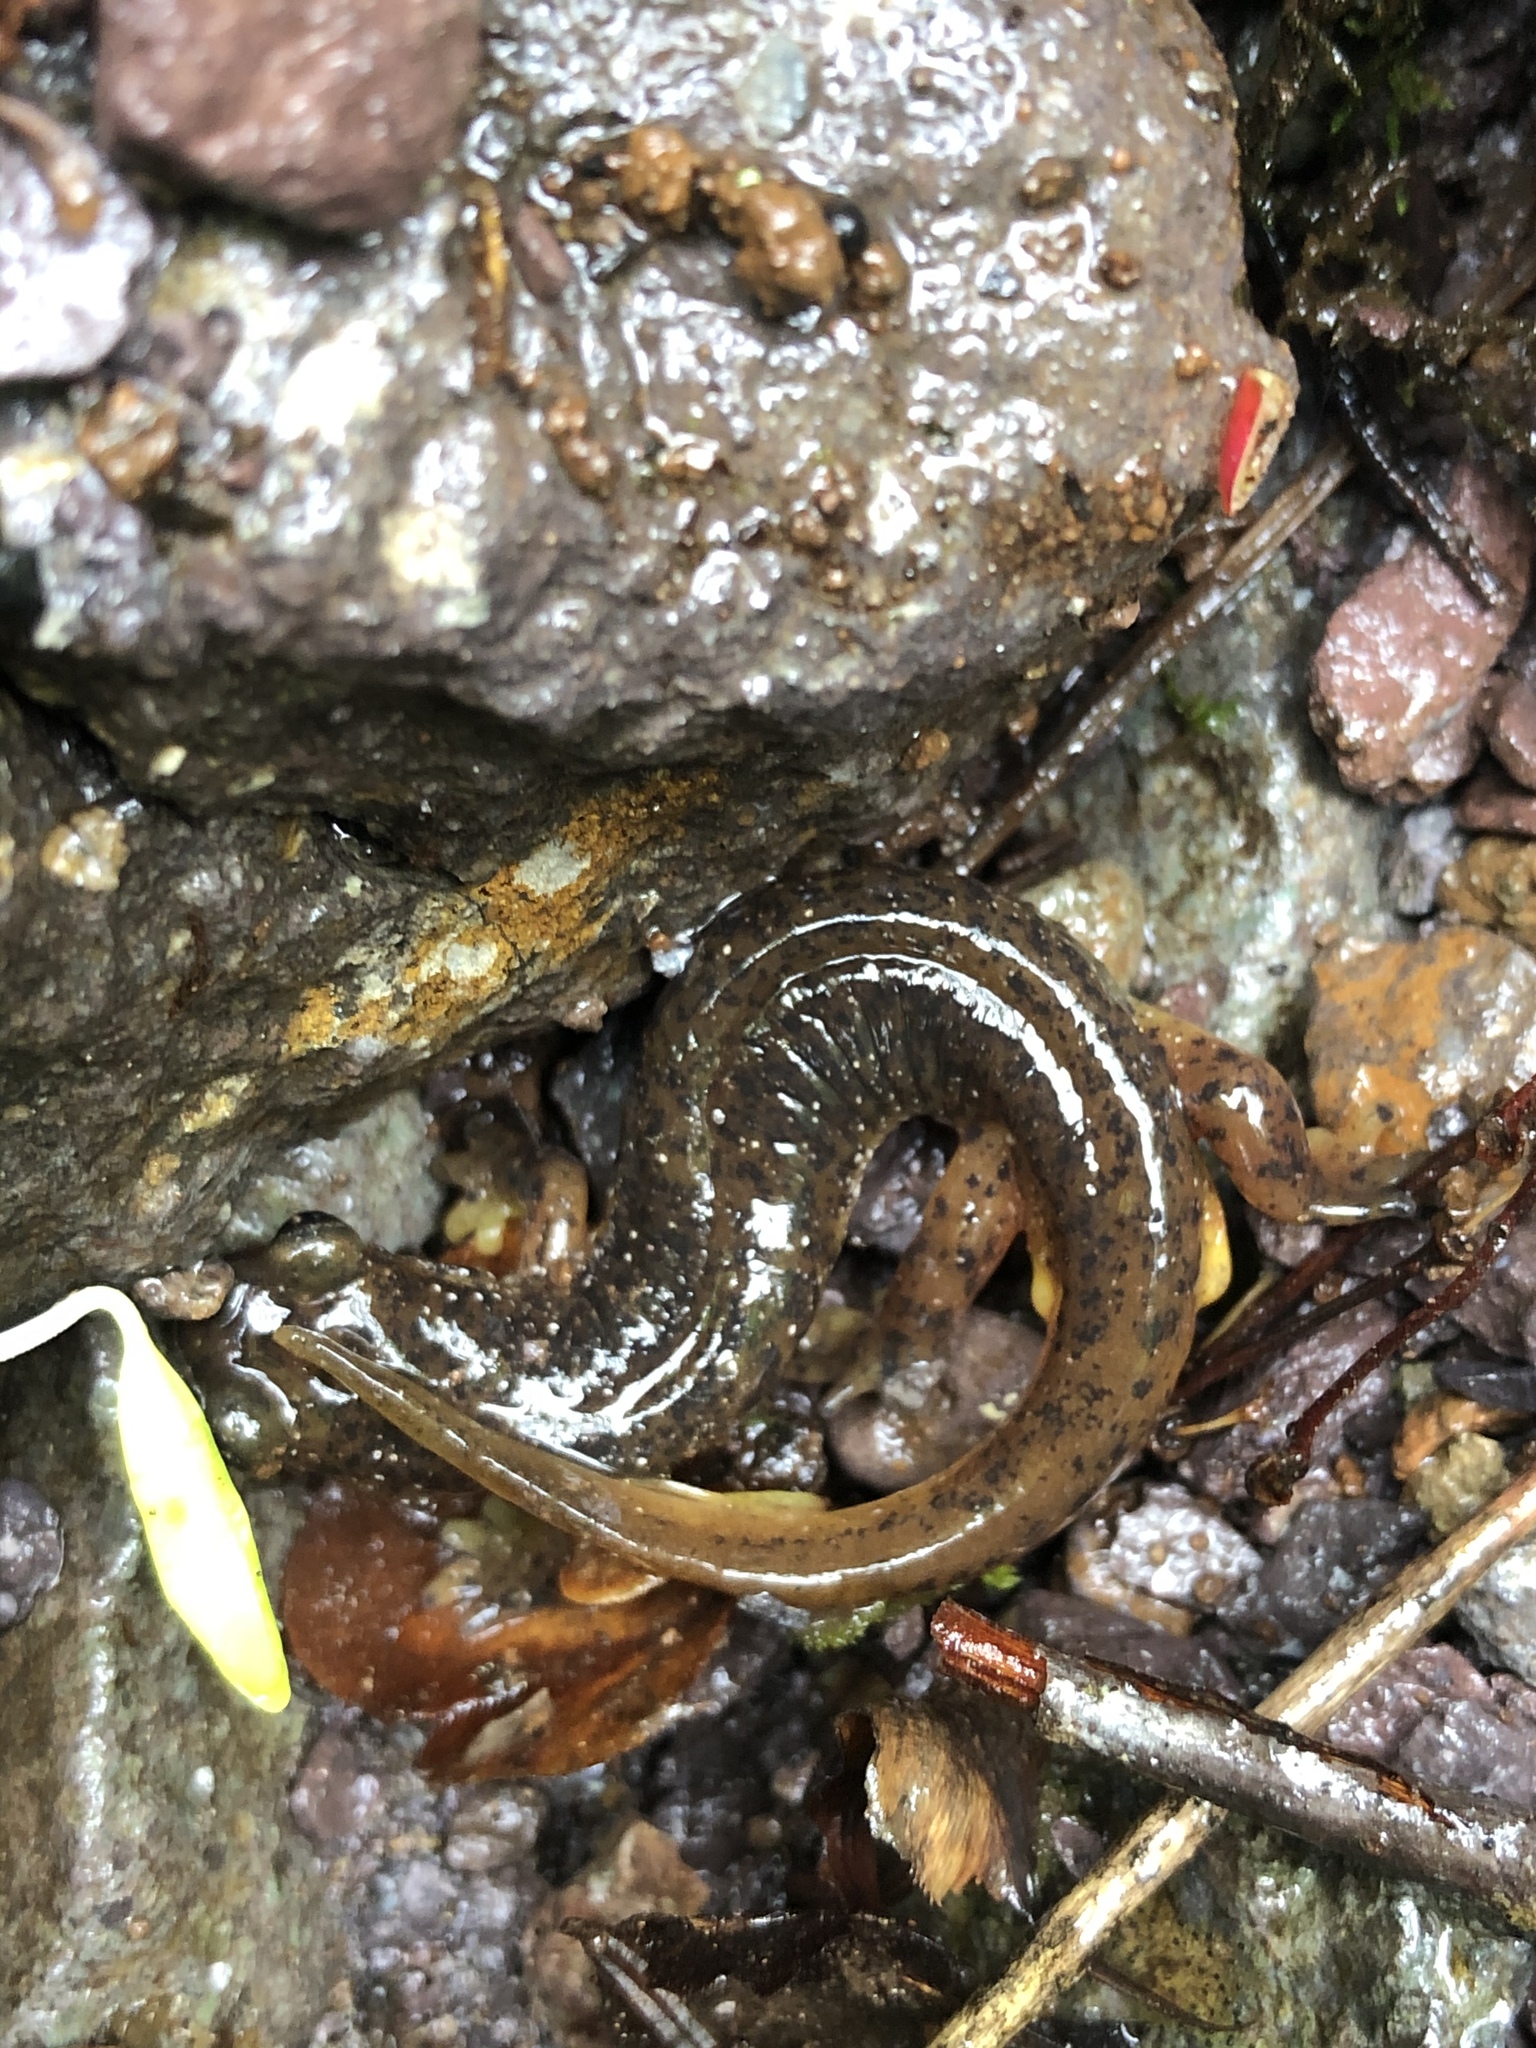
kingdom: Animalia
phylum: Chordata
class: Amphibia
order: Caudata
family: Rhyacotritonidae
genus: Rhyacotriton
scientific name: Rhyacotriton cascadae
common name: Cascade torrent salamander
